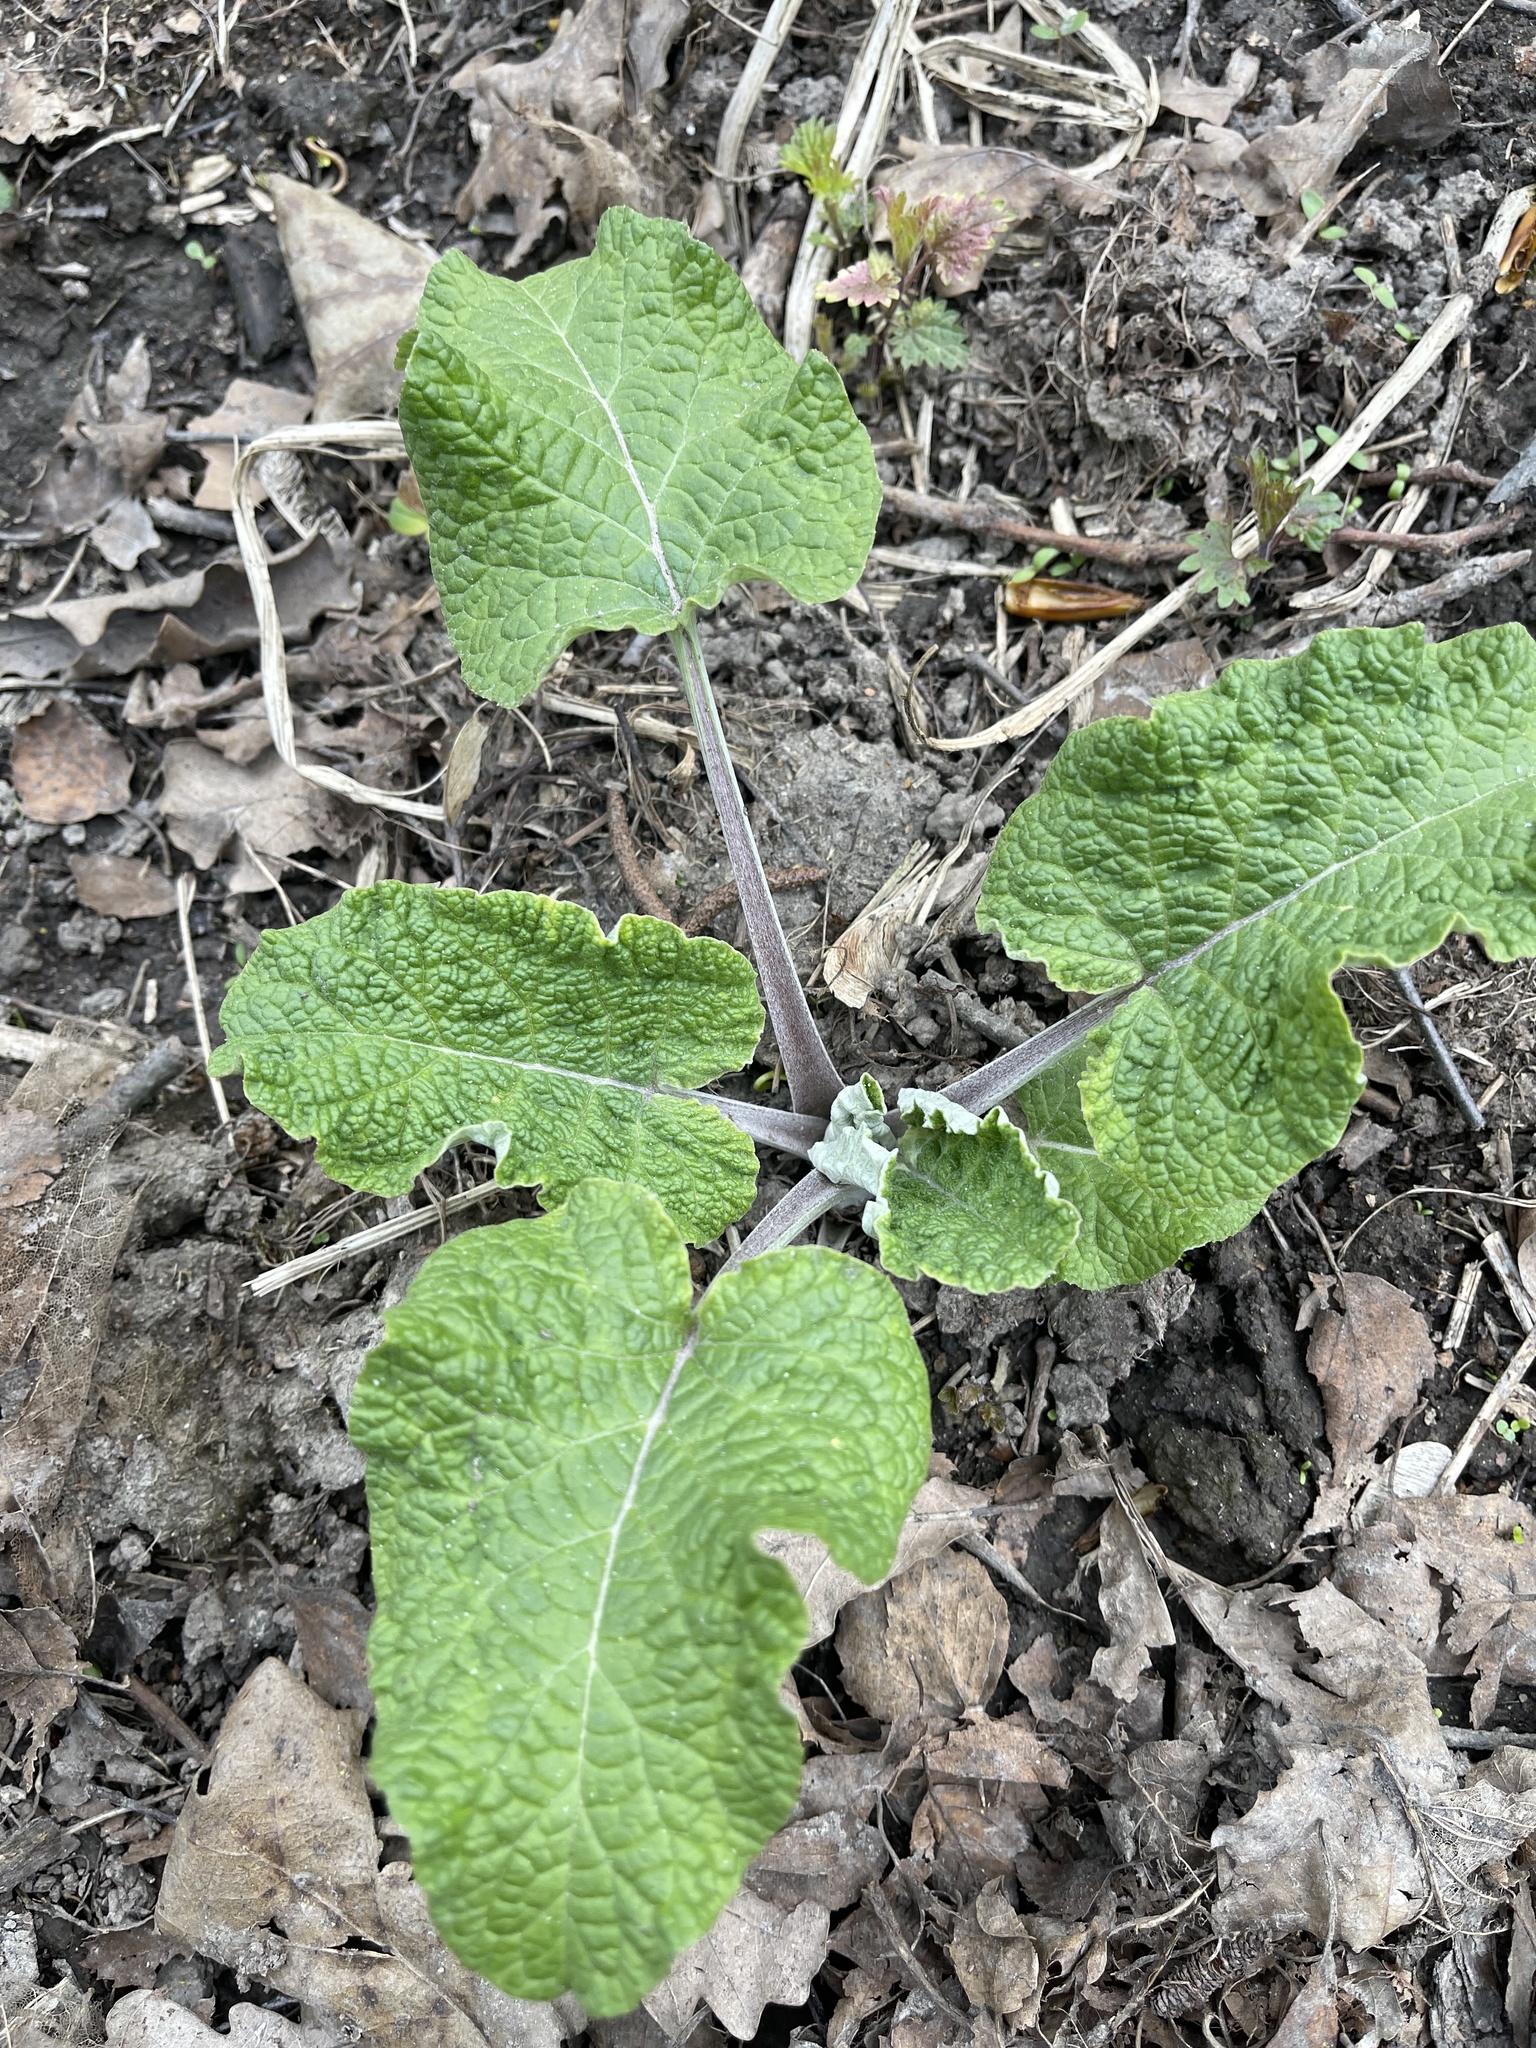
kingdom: Plantae
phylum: Tracheophyta
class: Magnoliopsida
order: Asterales
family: Asteraceae
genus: Arctium
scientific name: Arctium
